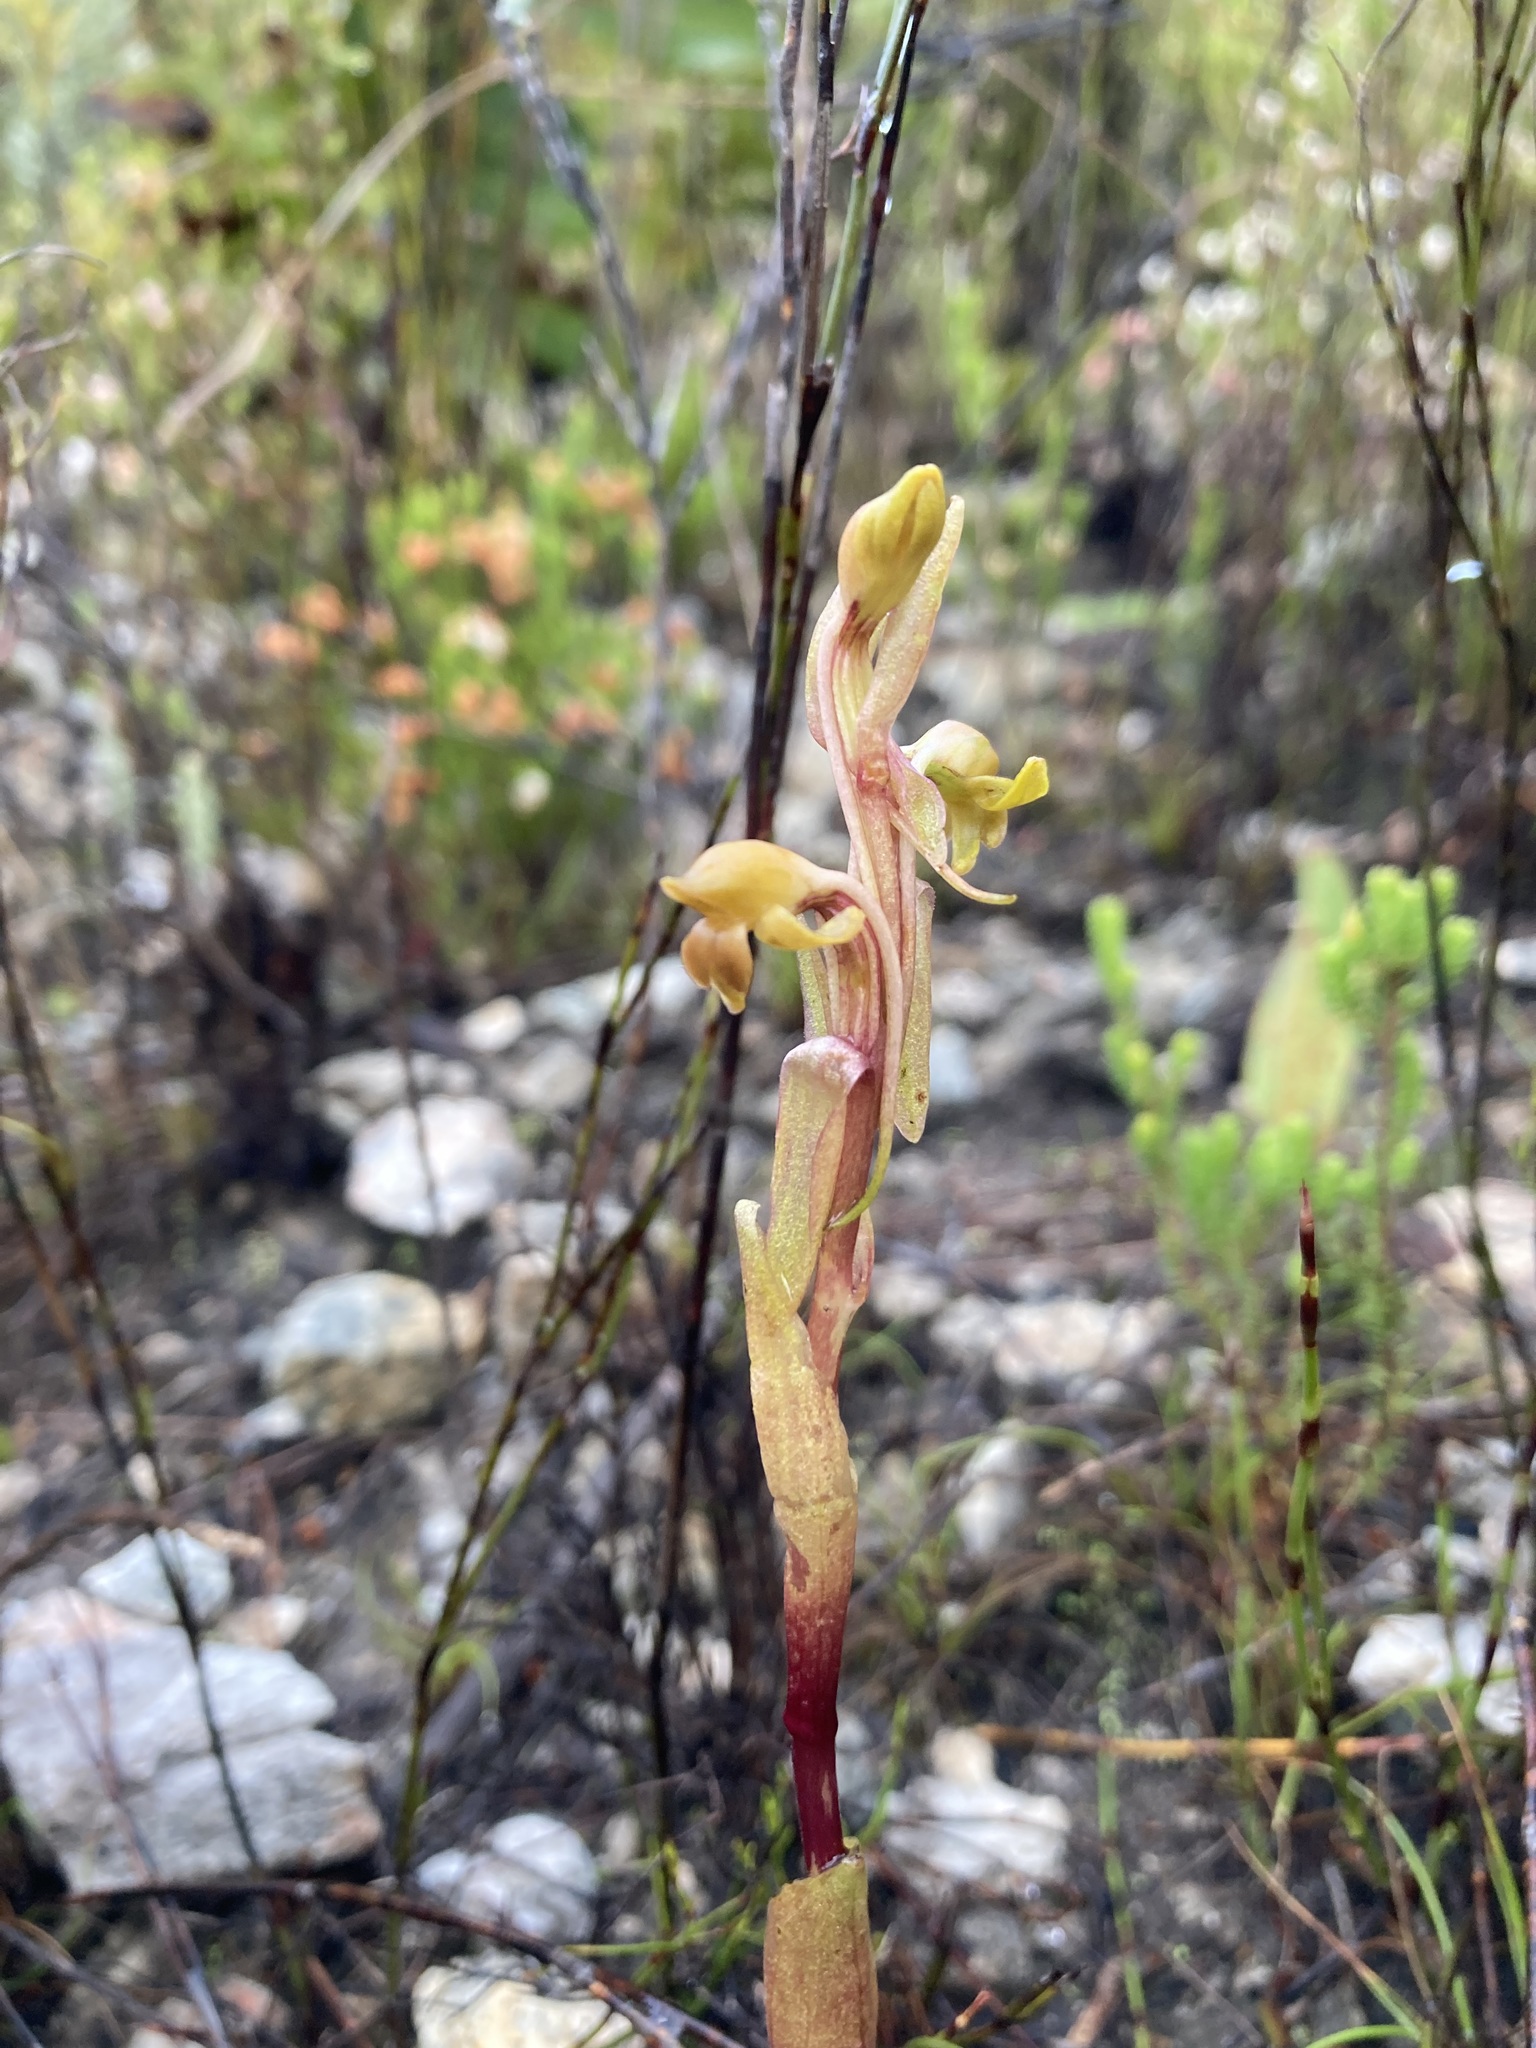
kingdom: Plantae
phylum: Tracheophyta
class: Liliopsida
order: Asparagales
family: Orchidaceae
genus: Satyrium
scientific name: Satyrium bicorne
